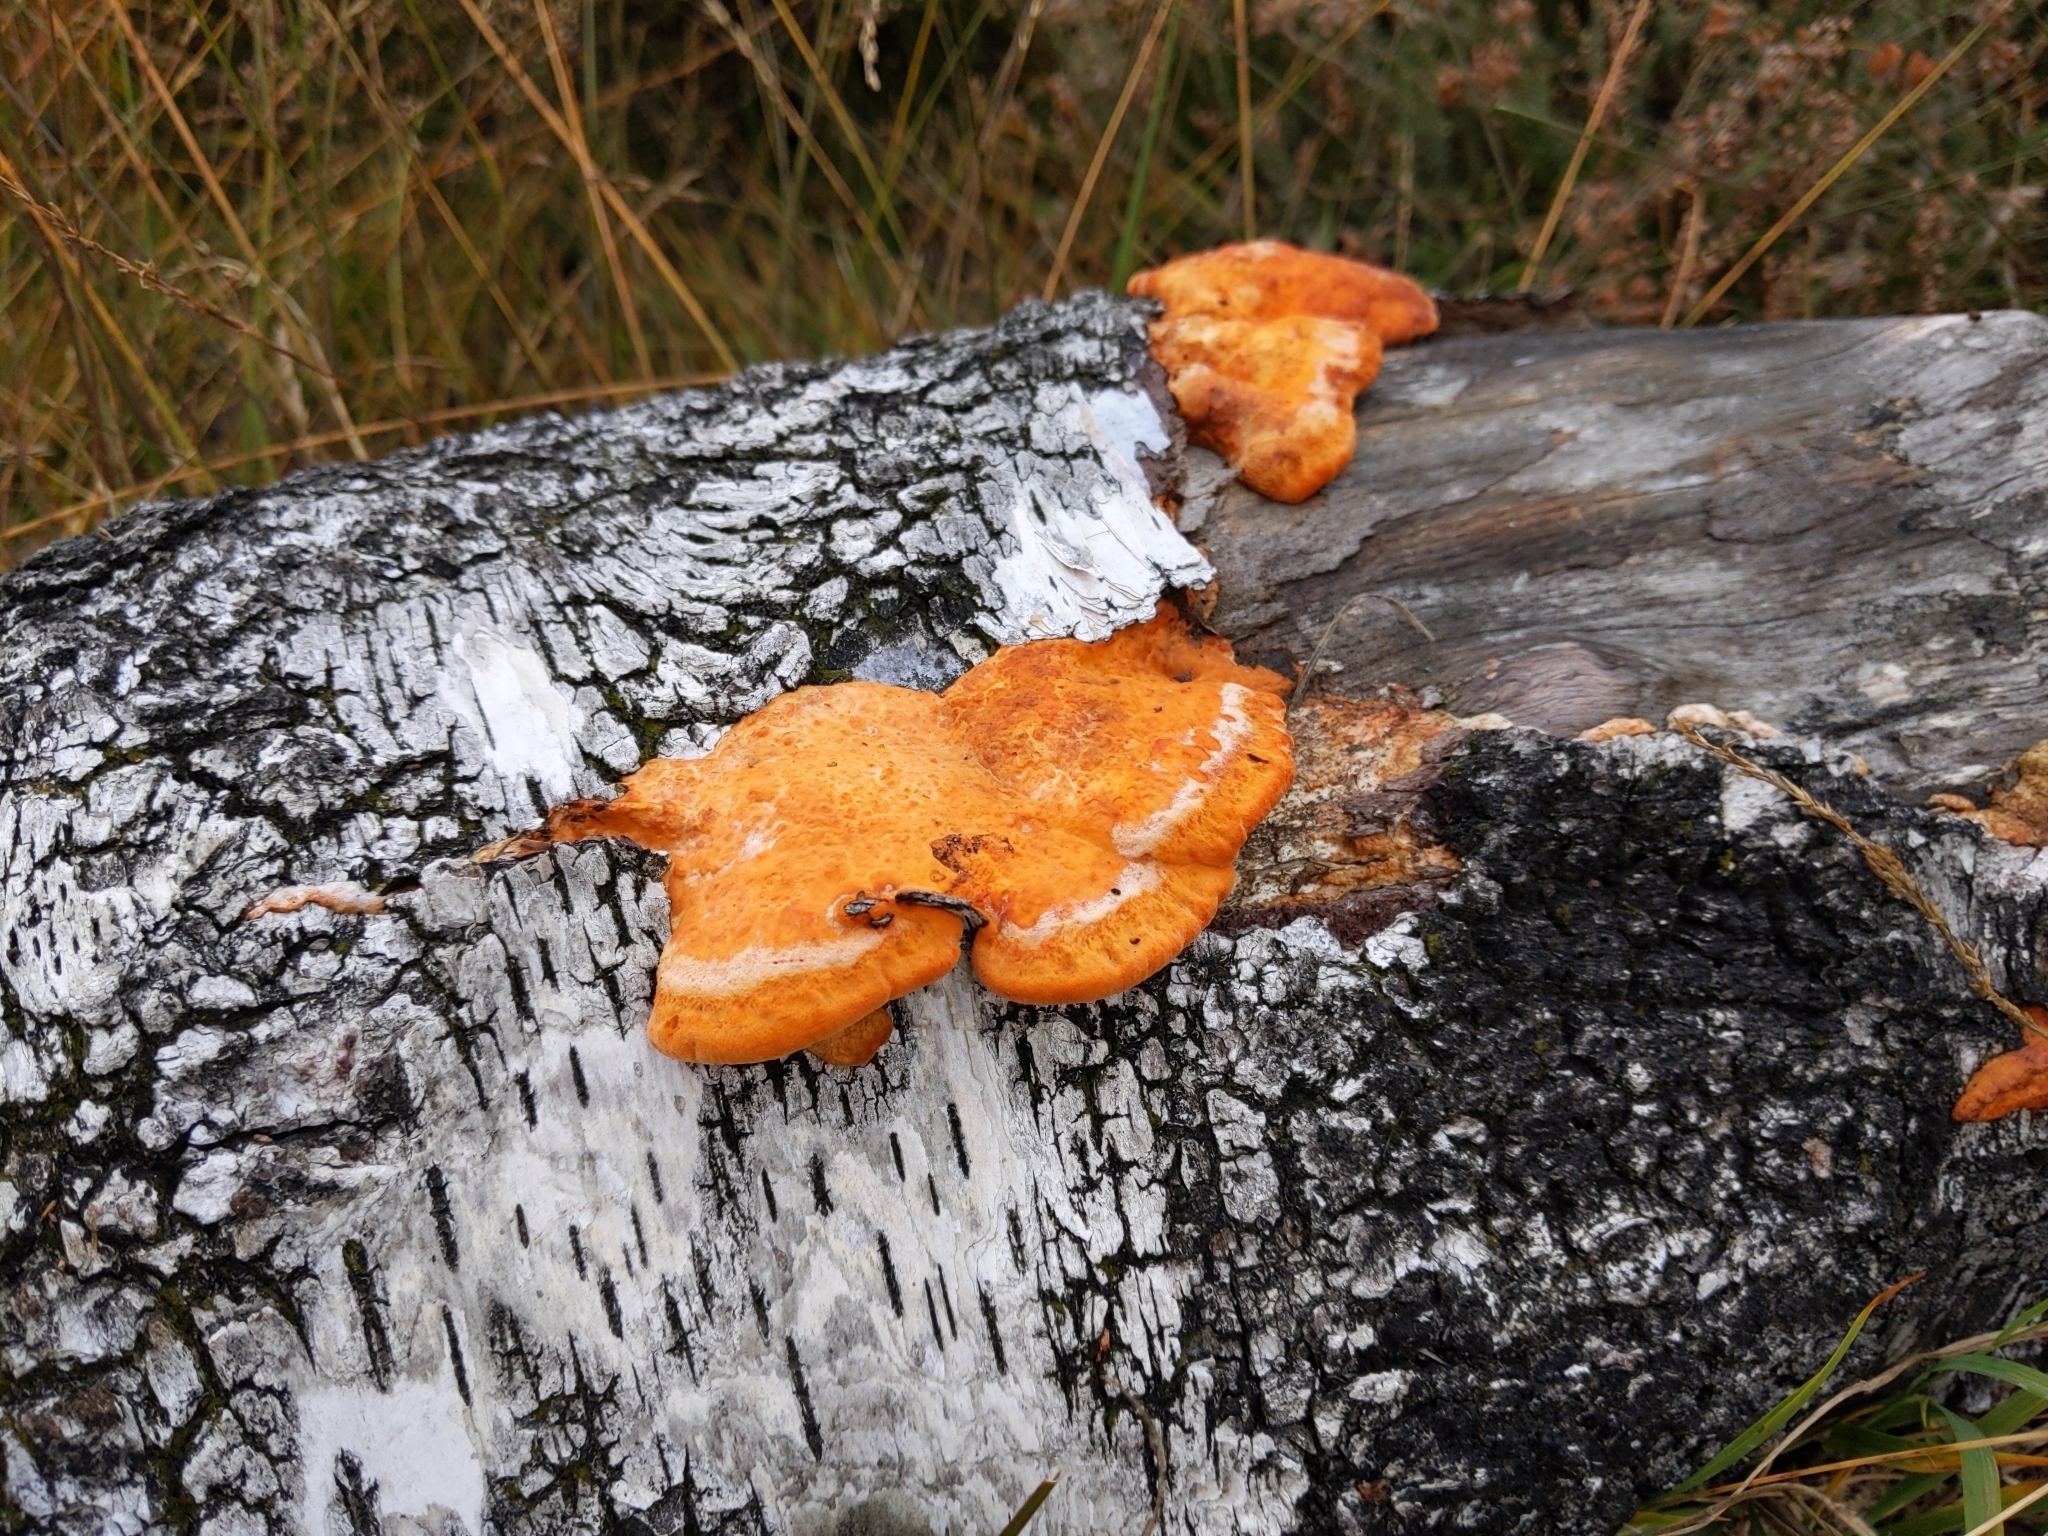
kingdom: Fungi
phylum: Basidiomycota
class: Agaricomycetes
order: Polyporales
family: Polyporaceae
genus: Trametes
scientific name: Trametes cinnabarina
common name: Northern cinnabar polypore
